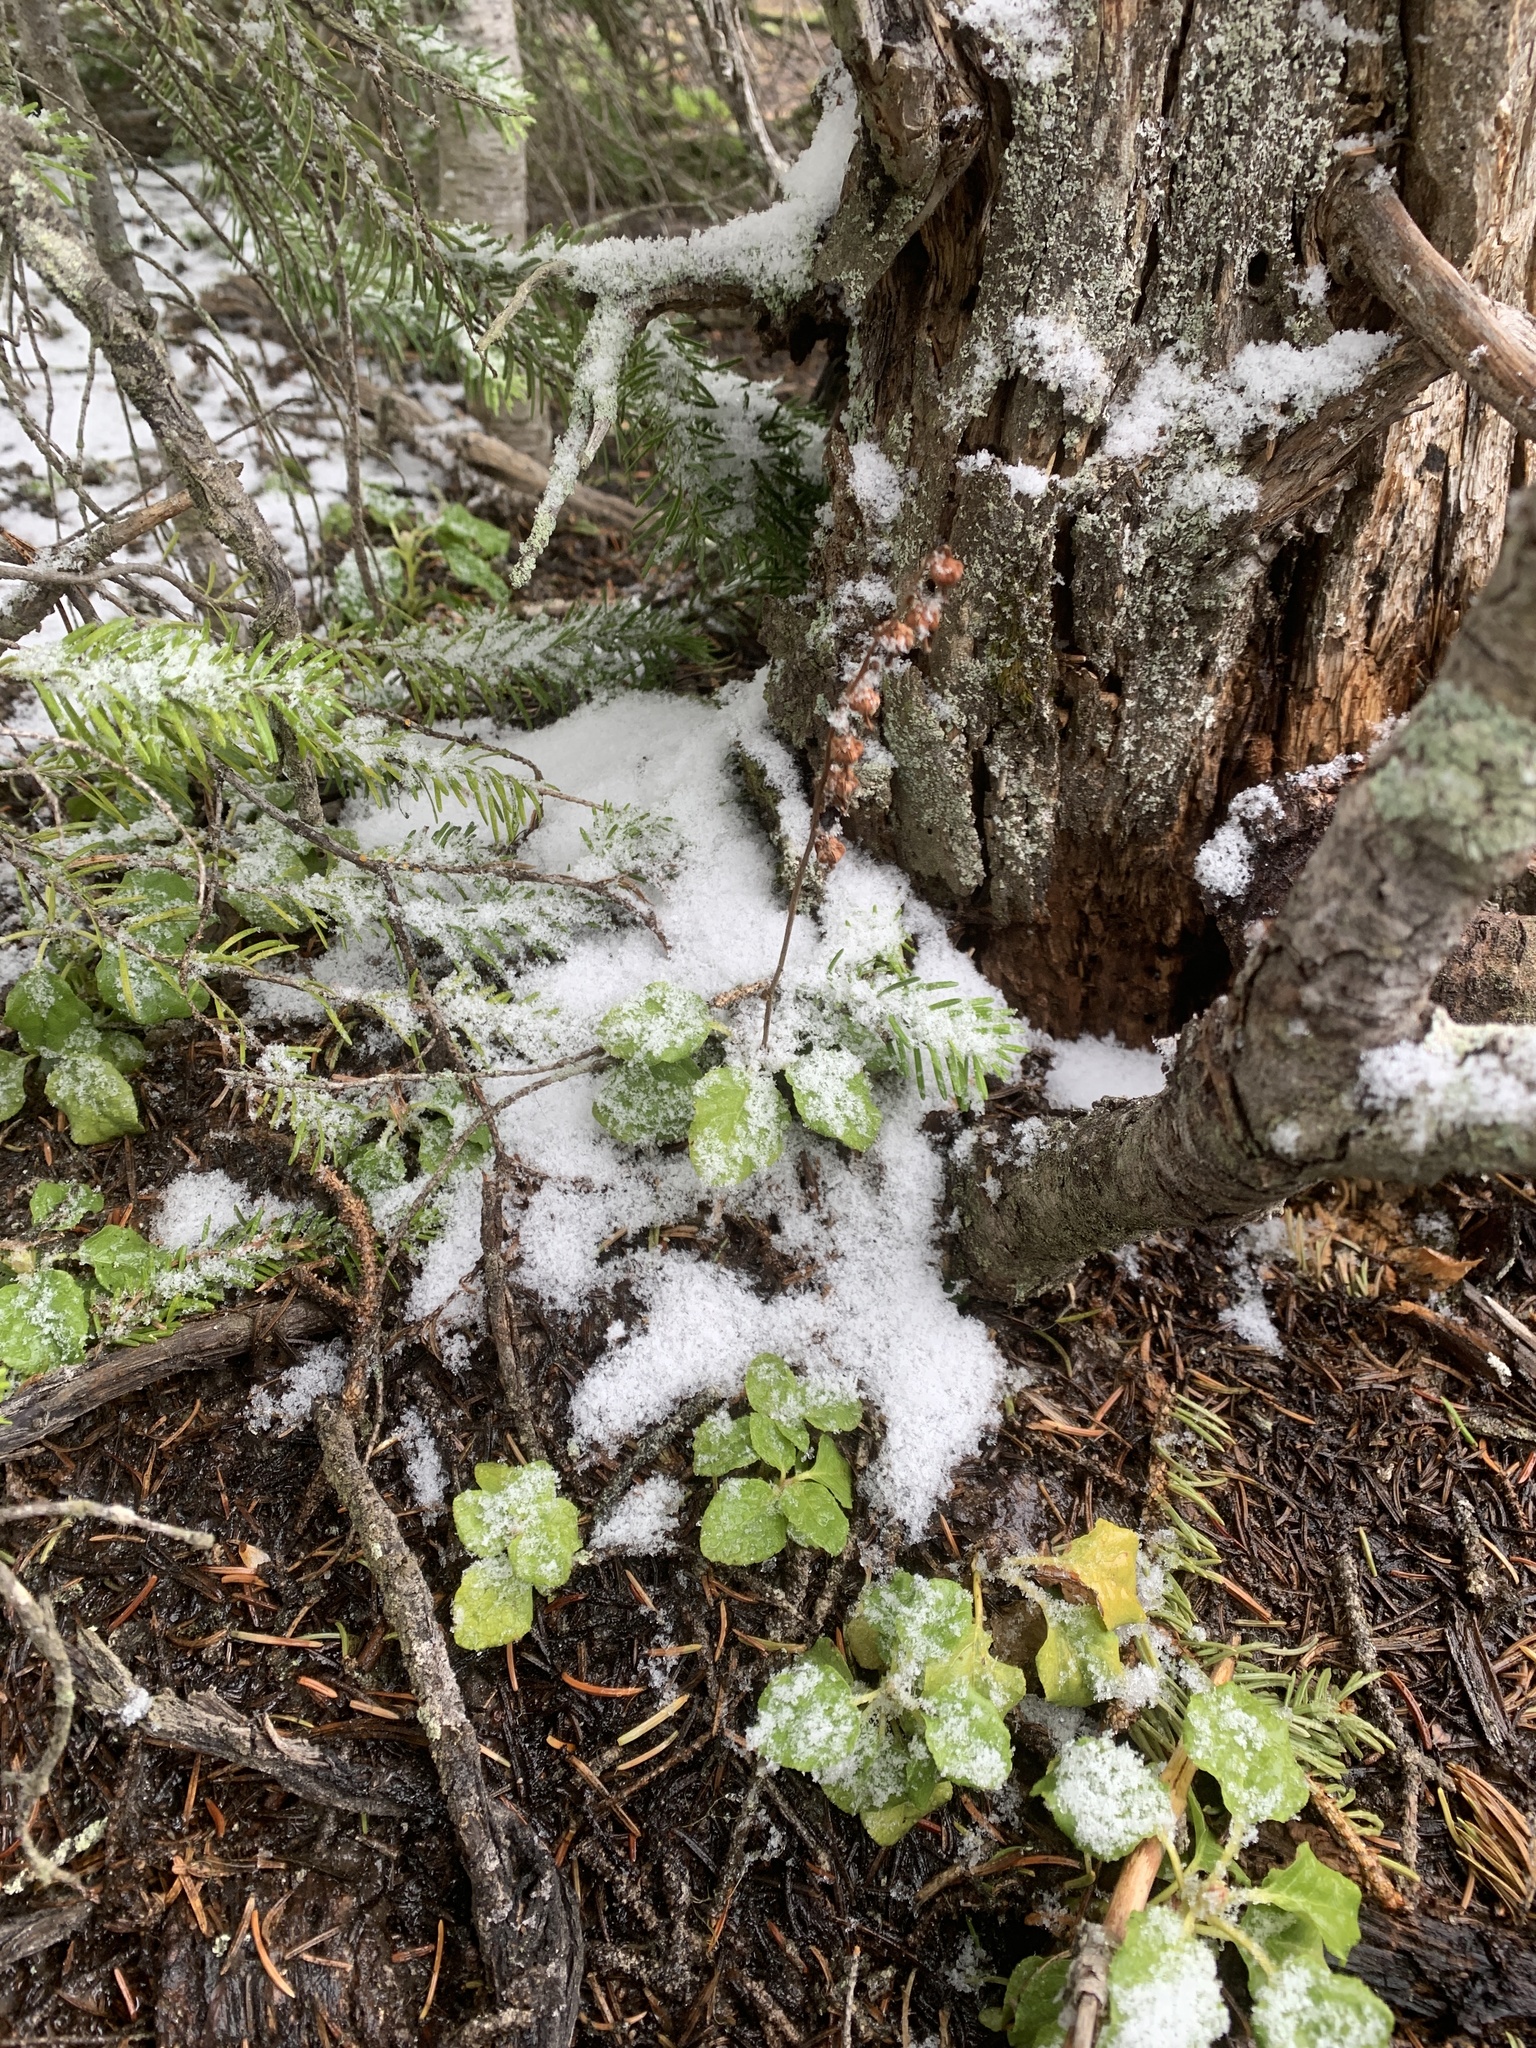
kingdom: Plantae
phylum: Tracheophyta
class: Magnoliopsida
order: Ericales
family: Ericaceae
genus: Orthilia
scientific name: Orthilia secunda
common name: One-sided orthilia
